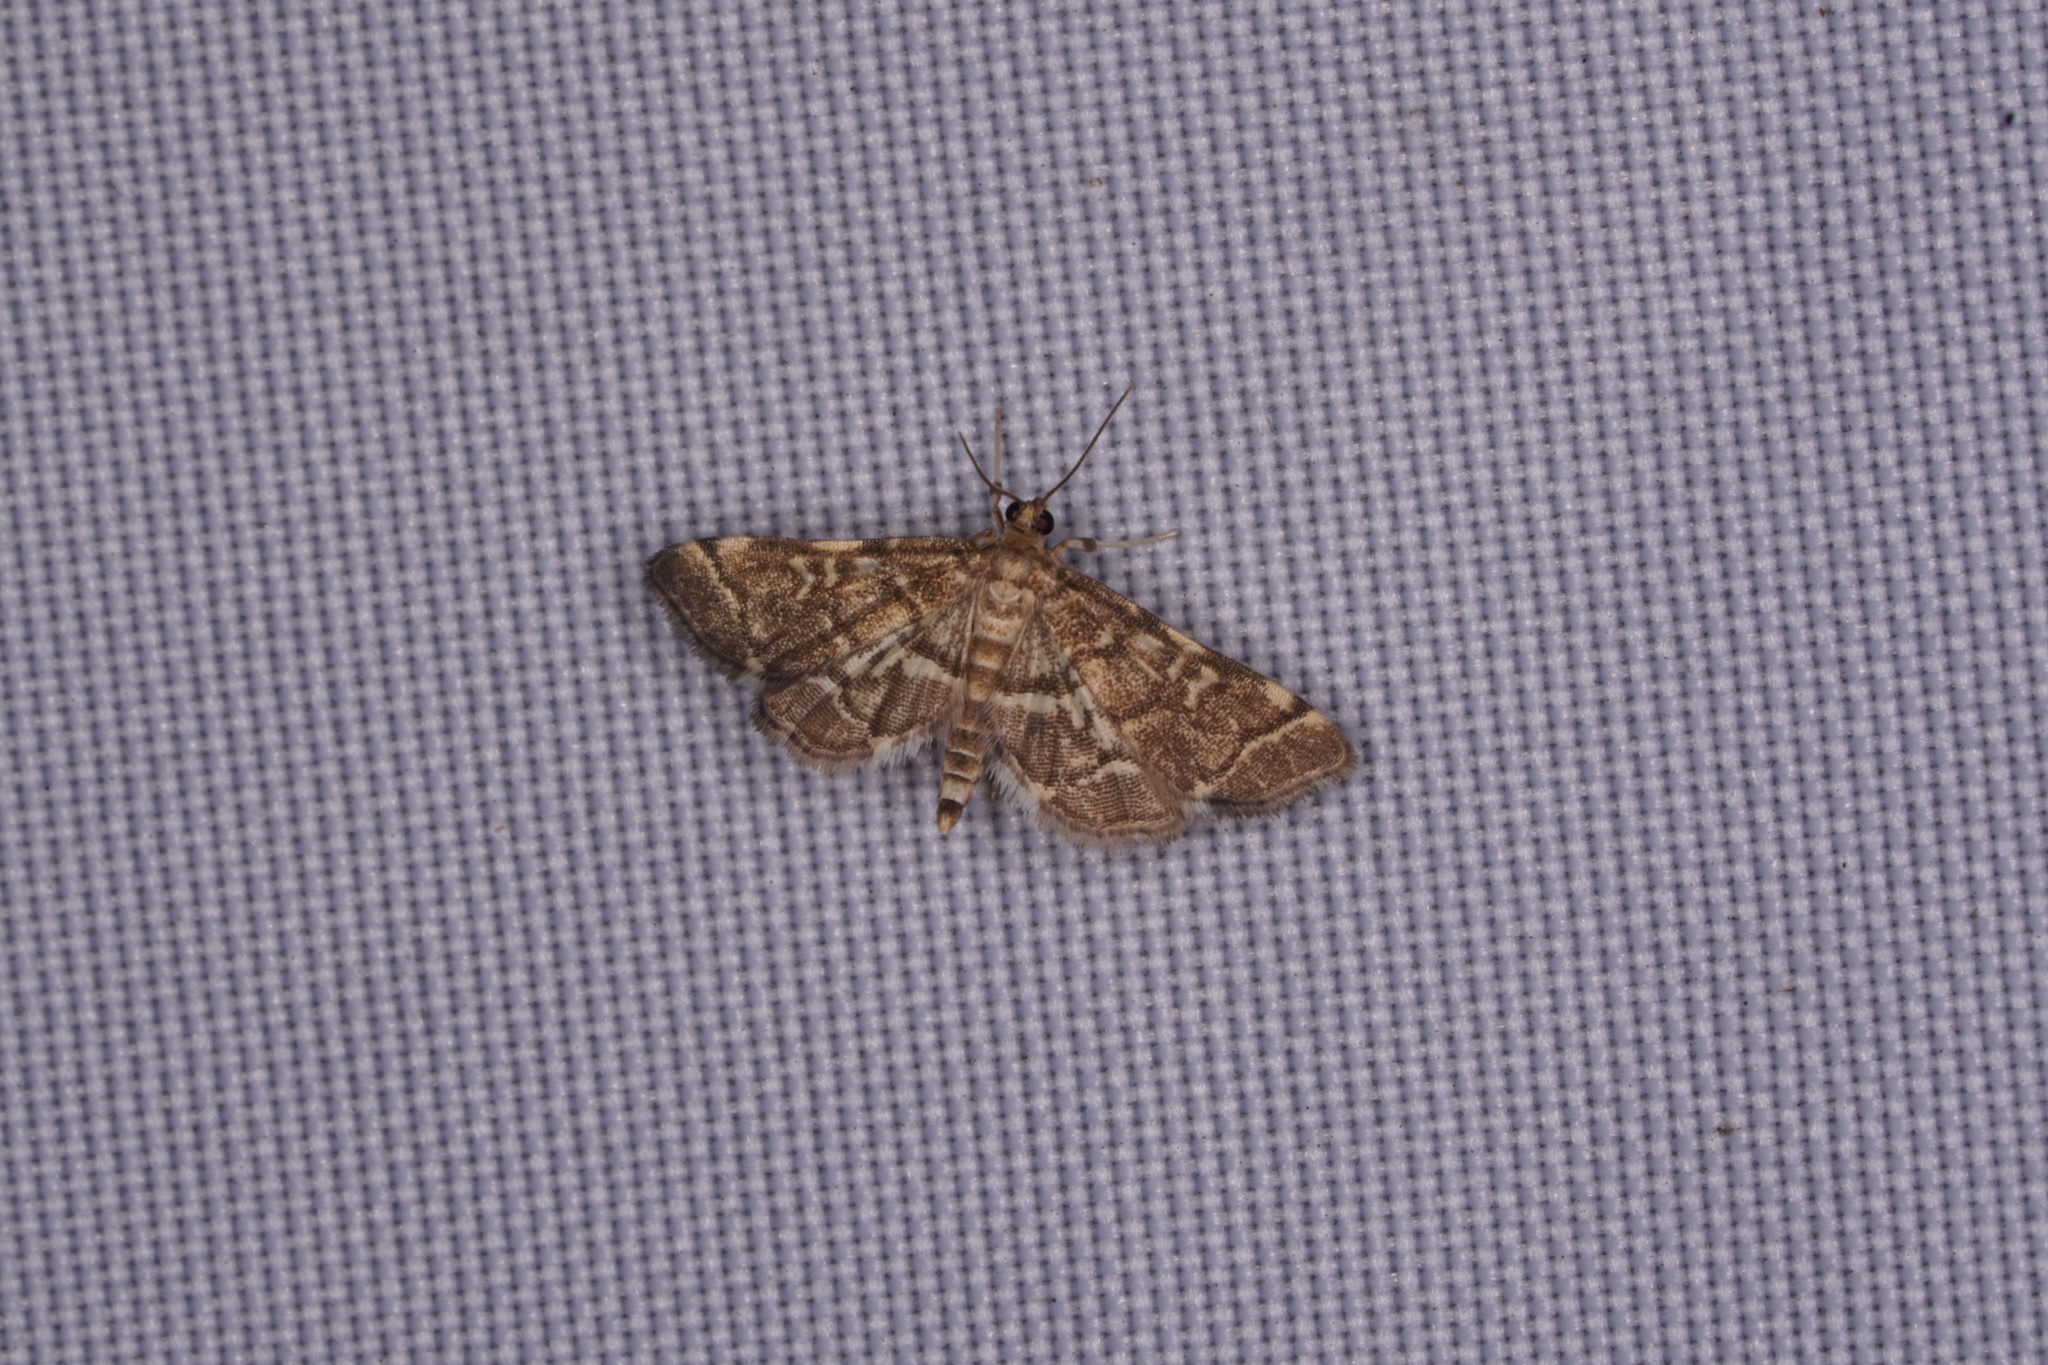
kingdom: Animalia
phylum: Arthropoda
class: Insecta
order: Lepidoptera
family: Crambidae
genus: Anageshna
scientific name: Anageshna primordialis
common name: Yellow-spotted webworm moth
